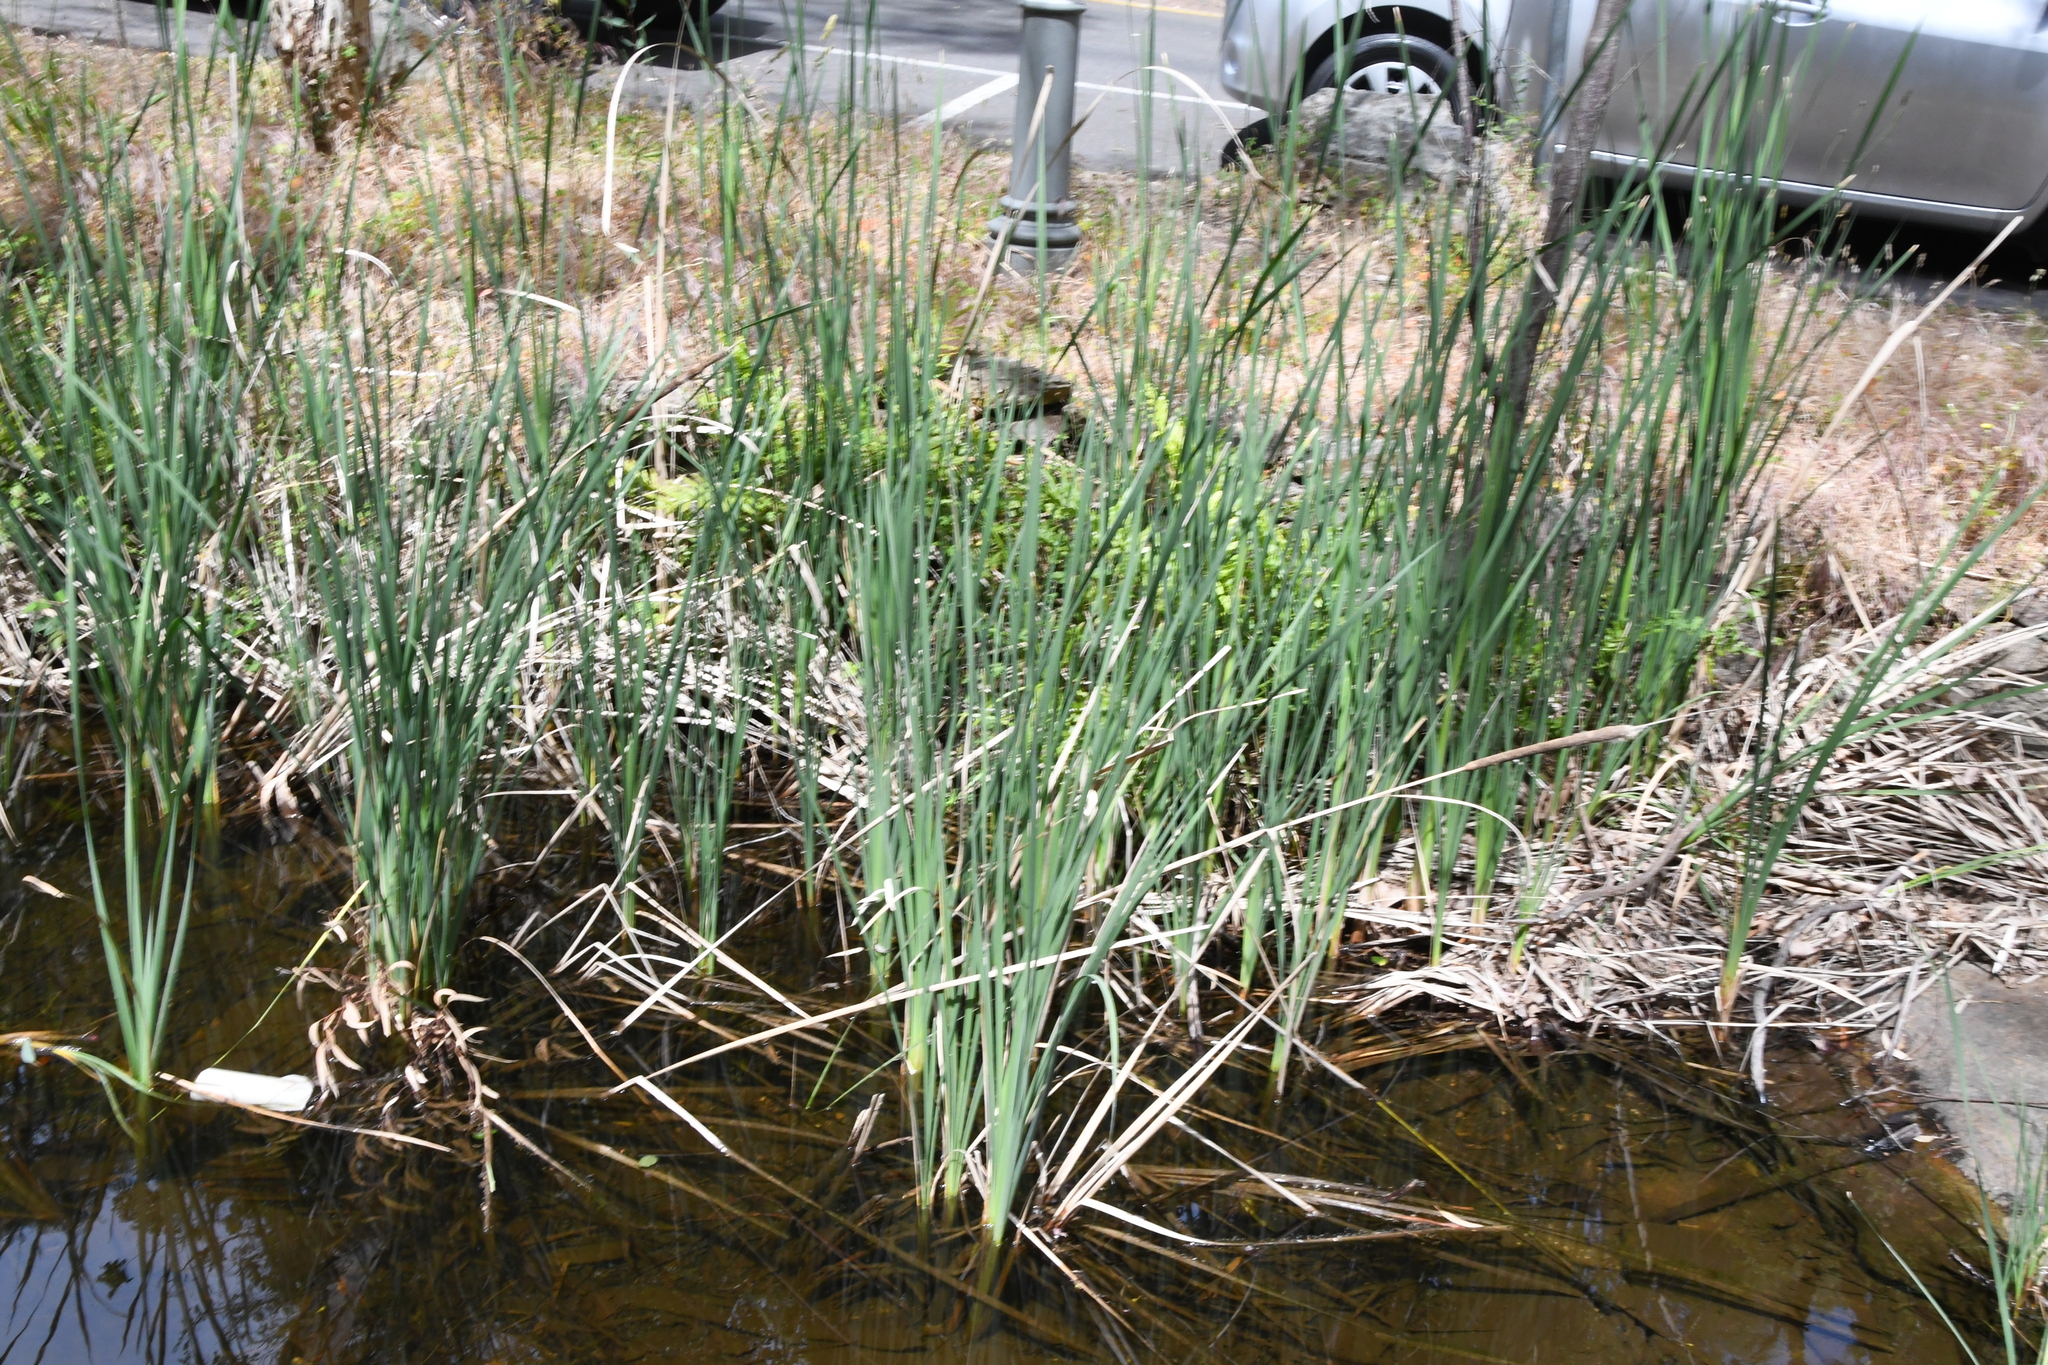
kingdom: Plantae
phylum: Tracheophyta
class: Liliopsida
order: Poales
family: Typhaceae
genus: Typha
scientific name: Typha domingensis
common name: Southern cattail
